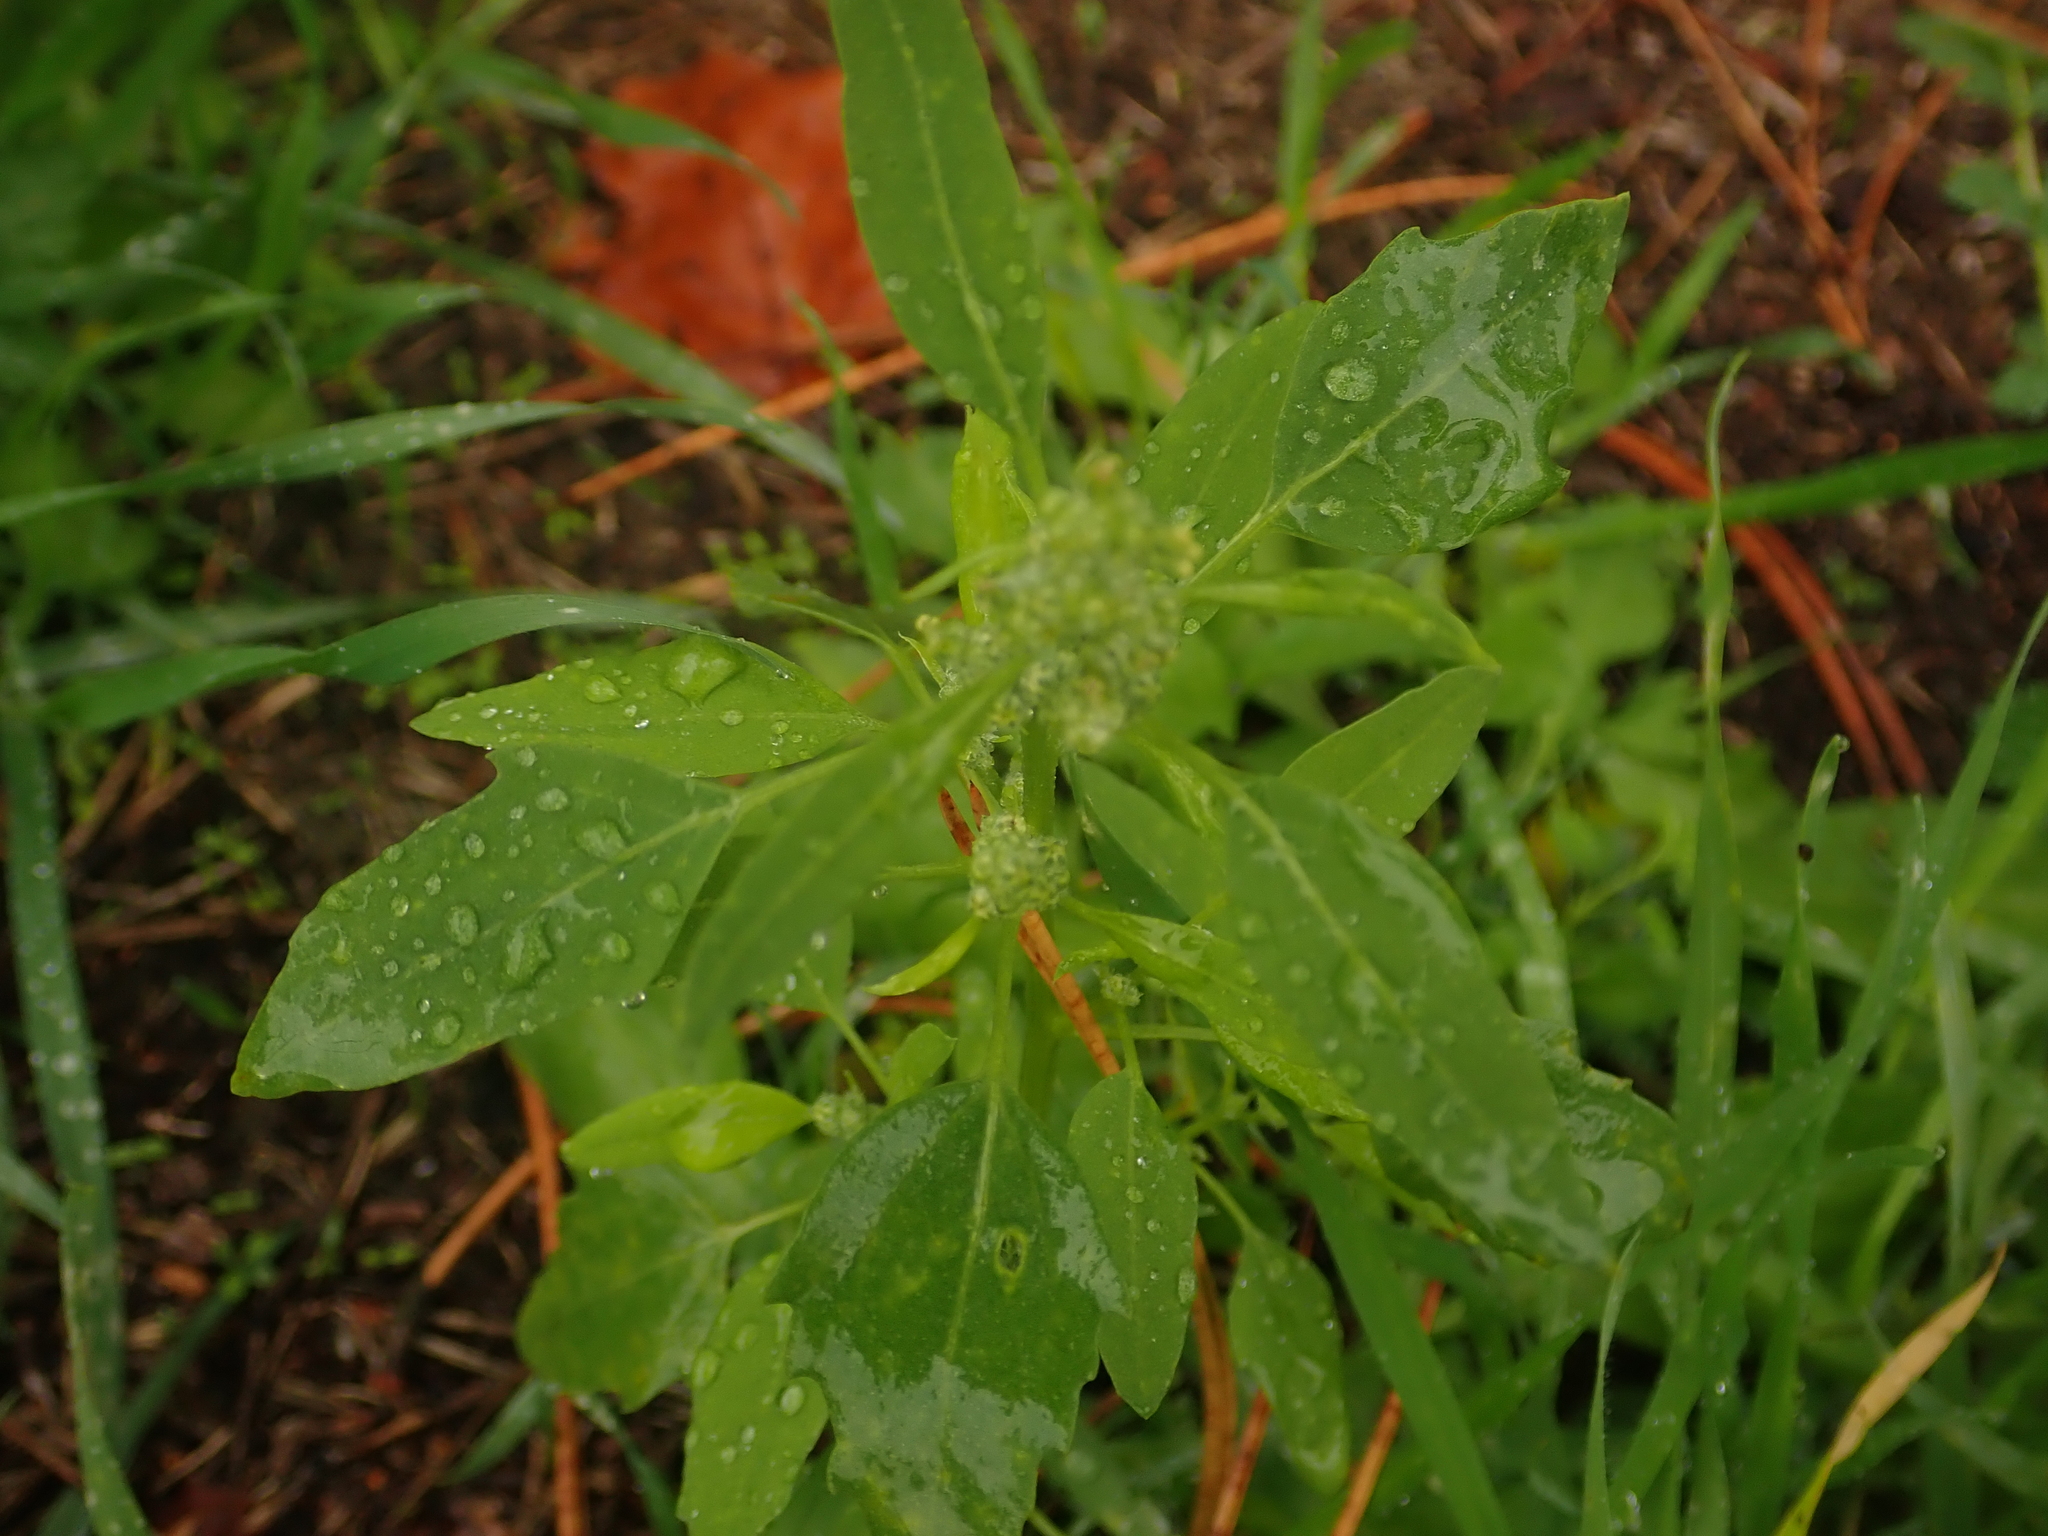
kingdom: Plantae
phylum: Tracheophyta
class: Magnoliopsida
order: Caryophyllales
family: Amaranthaceae
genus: Chenopodium
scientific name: Chenopodium album
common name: Fat-hen
